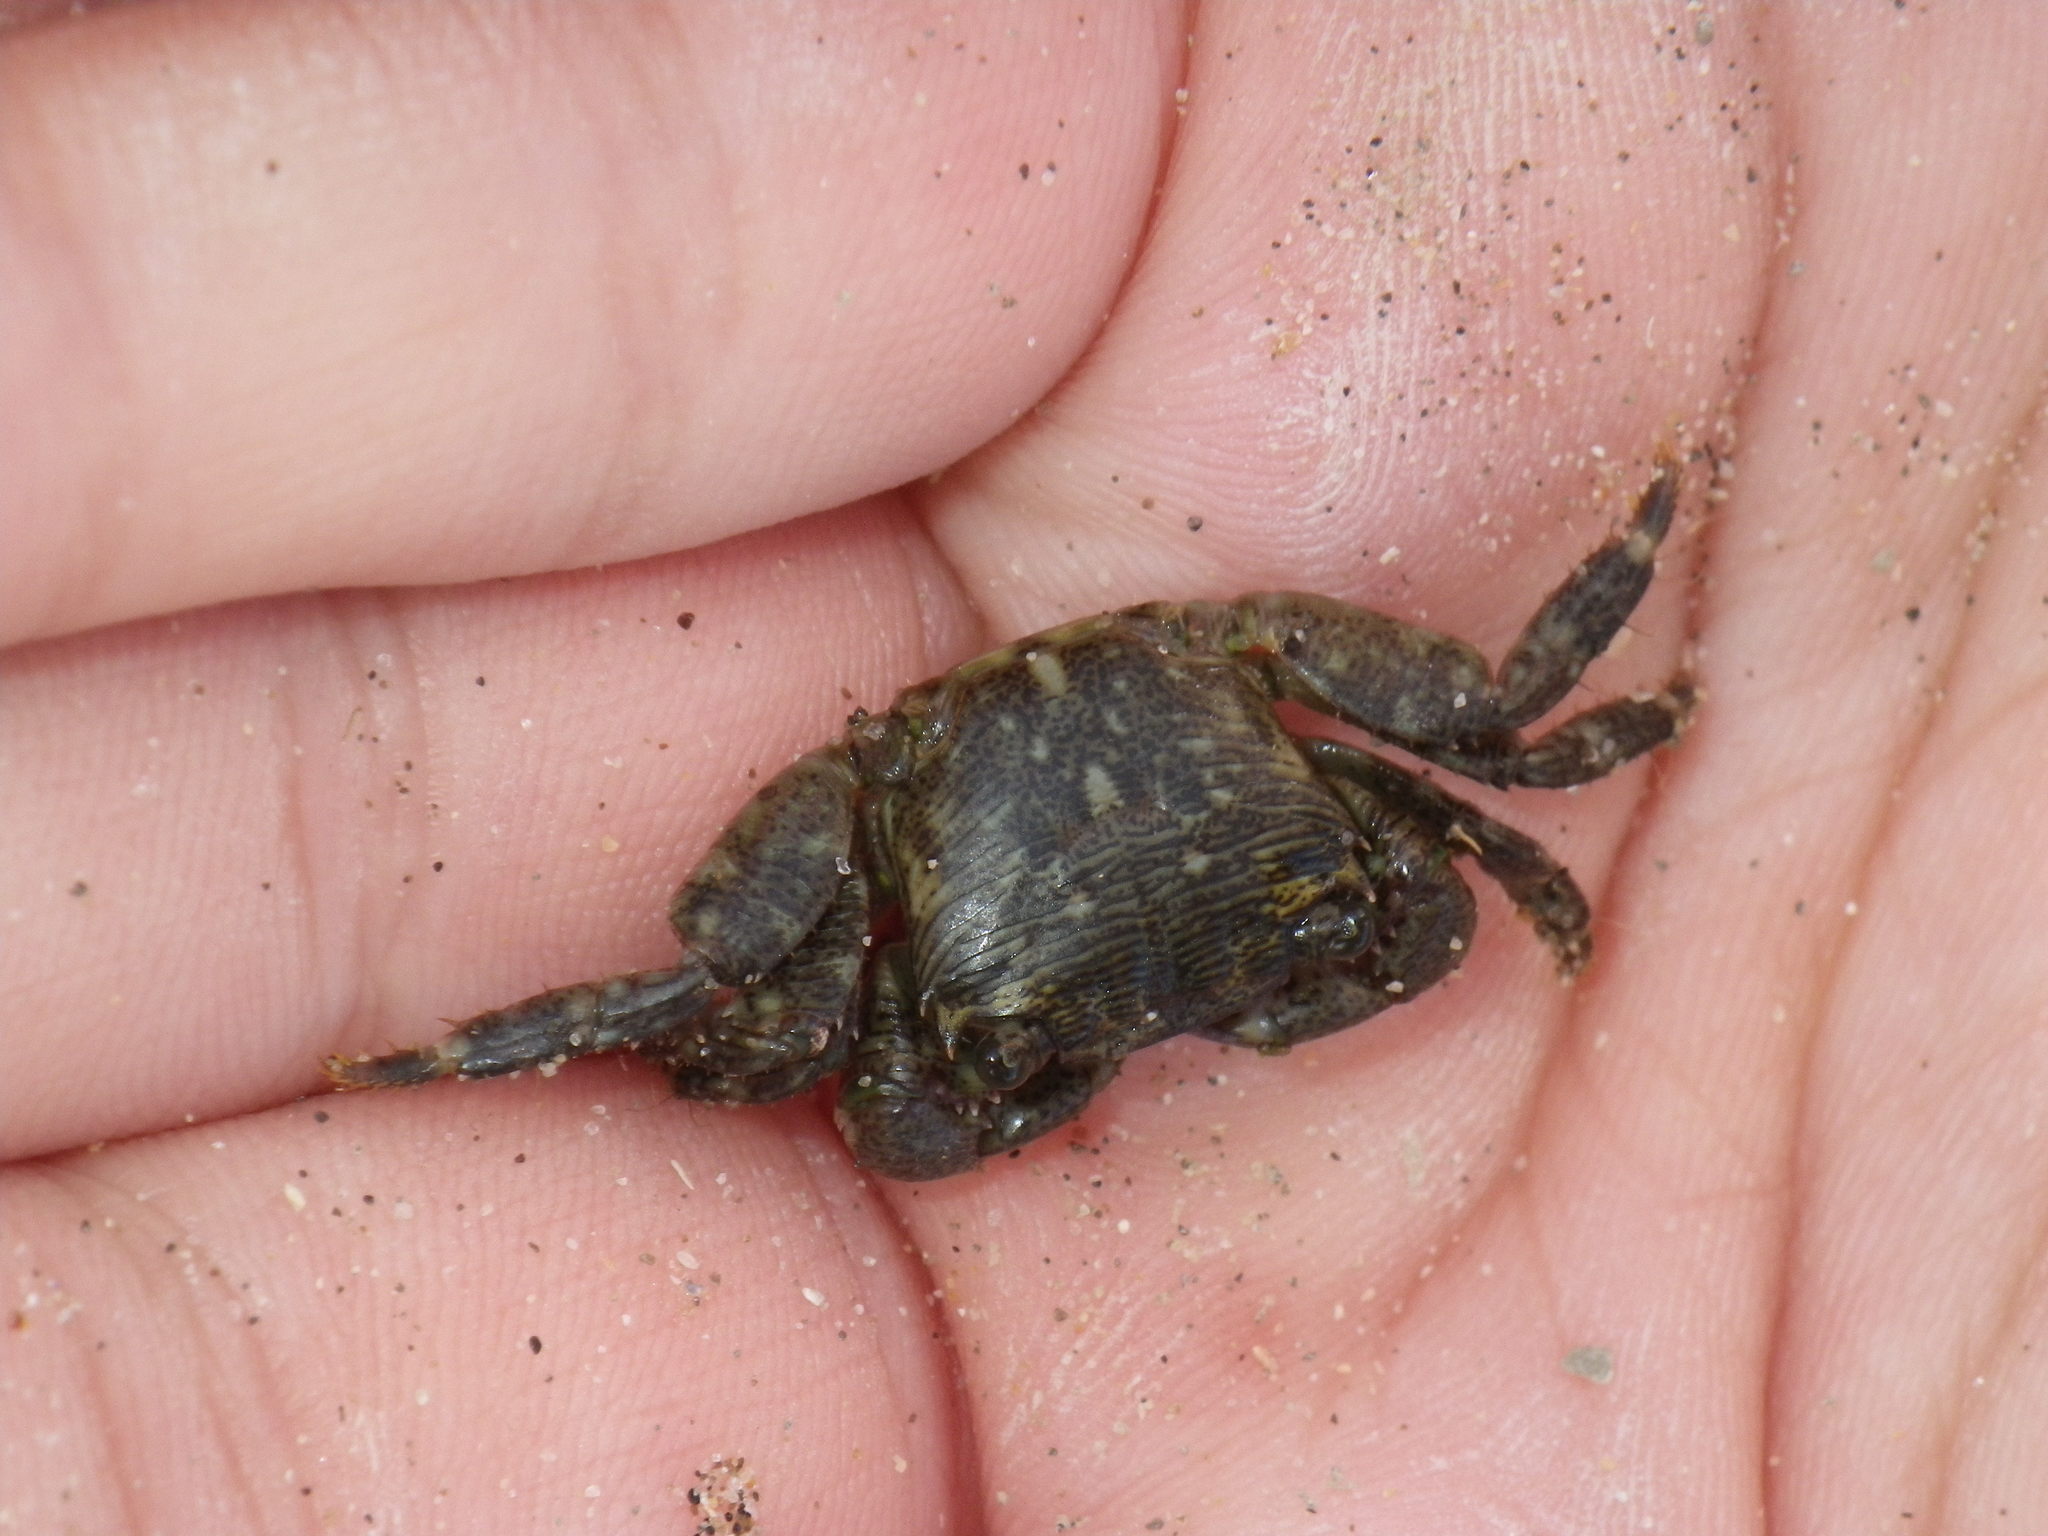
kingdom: Animalia
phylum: Arthropoda
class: Malacostraca
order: Decapoda
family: Grapsidae
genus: Pachygrapsus
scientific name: Pachygrapsus crassipes
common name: Striped shore crab
